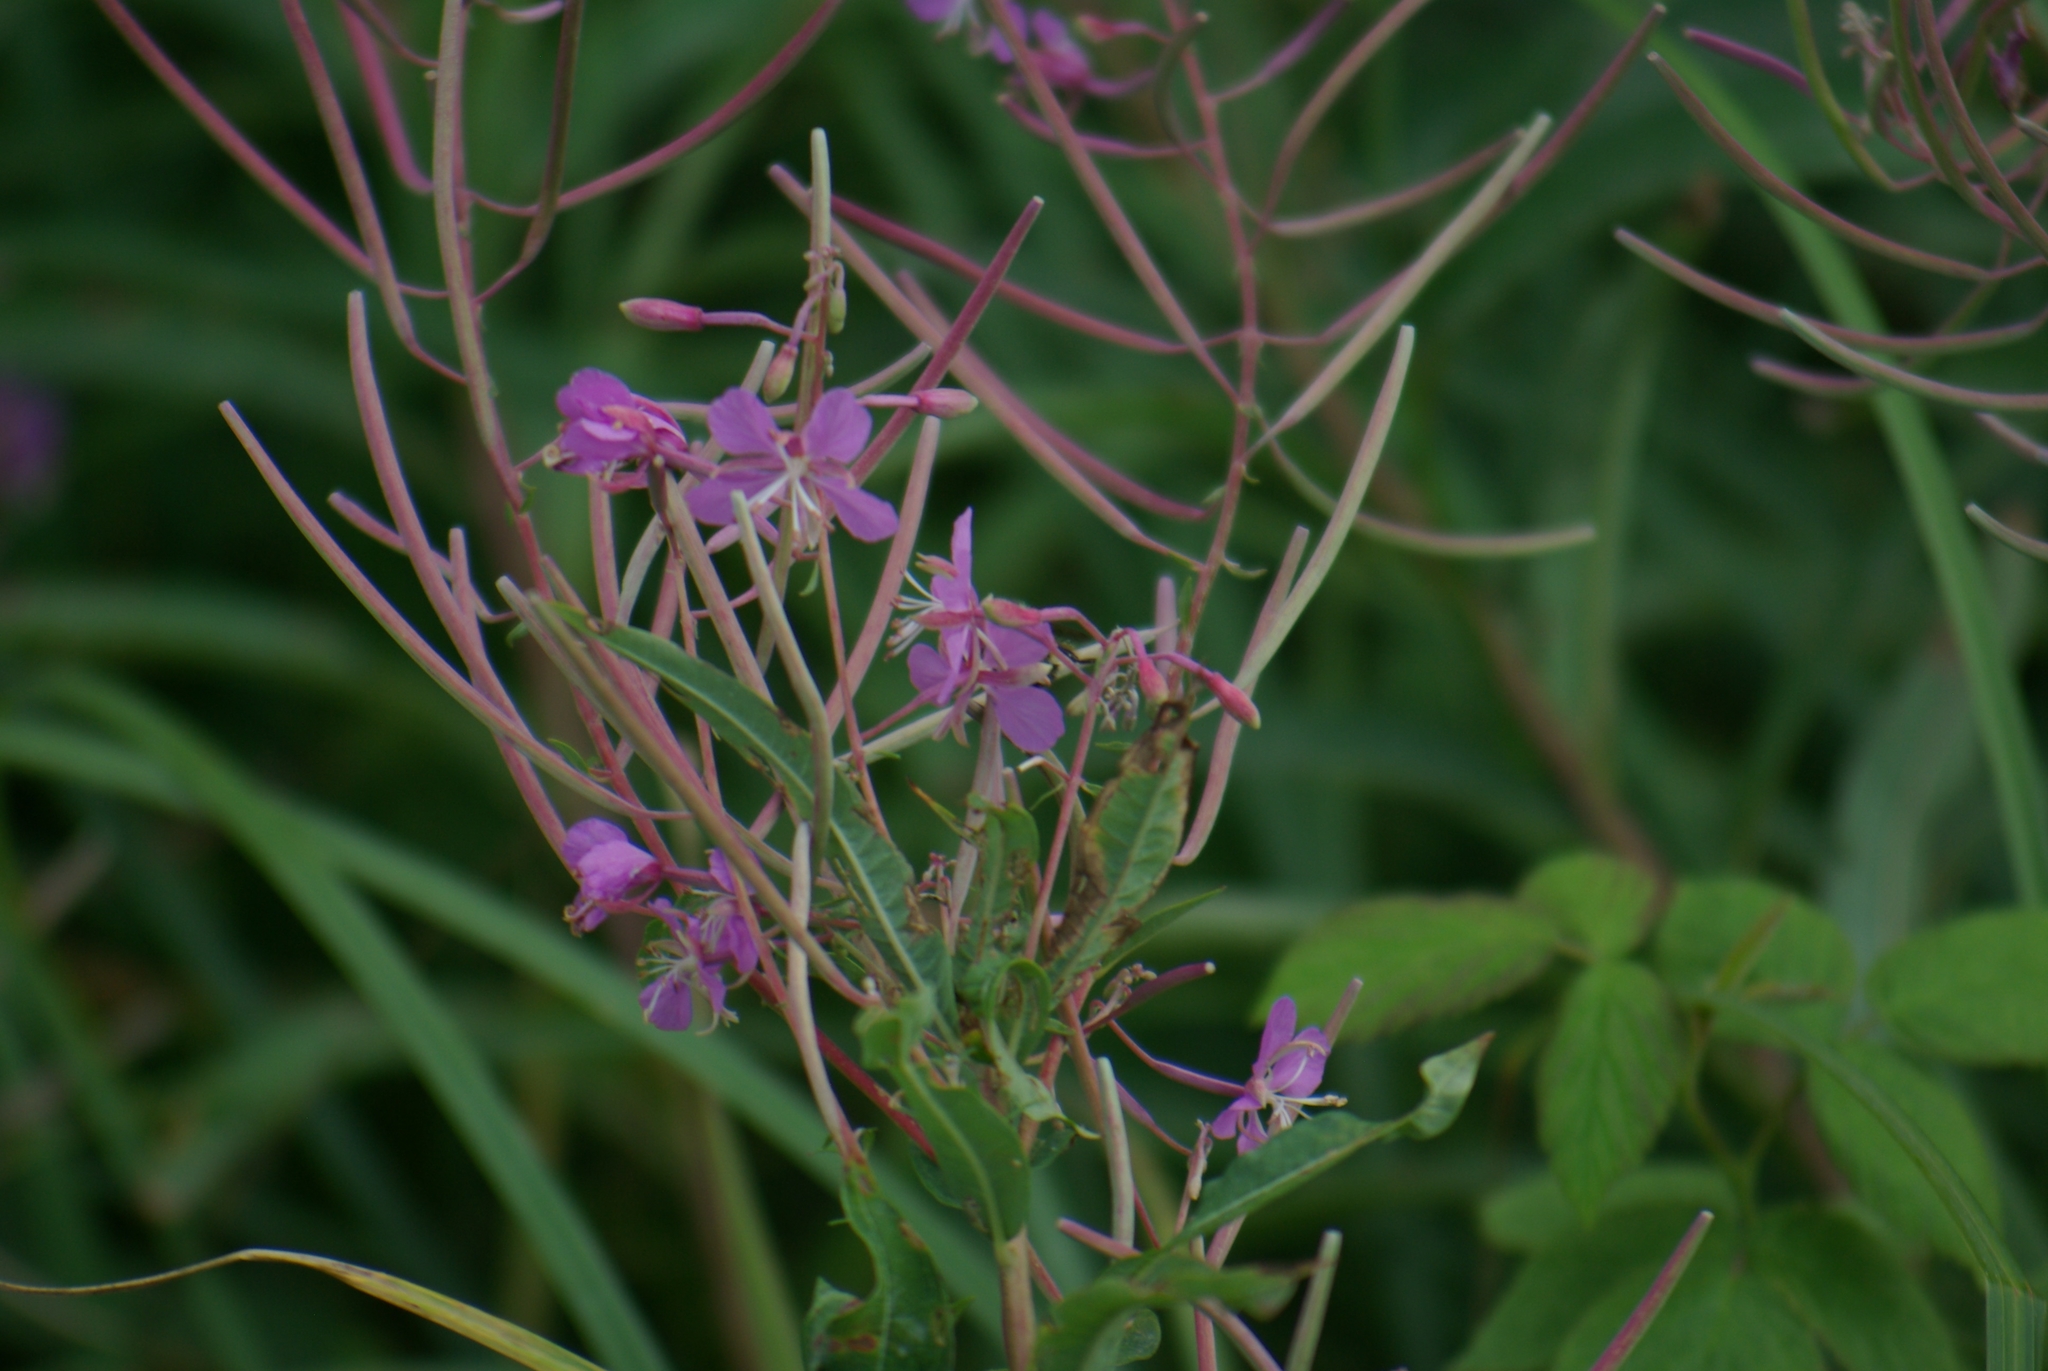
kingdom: Plantae
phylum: Tracheophyta
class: Magnoliopsida
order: Myrtales
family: Onagraceae
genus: Chamaenerion
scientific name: Chamaenerion angustifolium
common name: Fireweed
